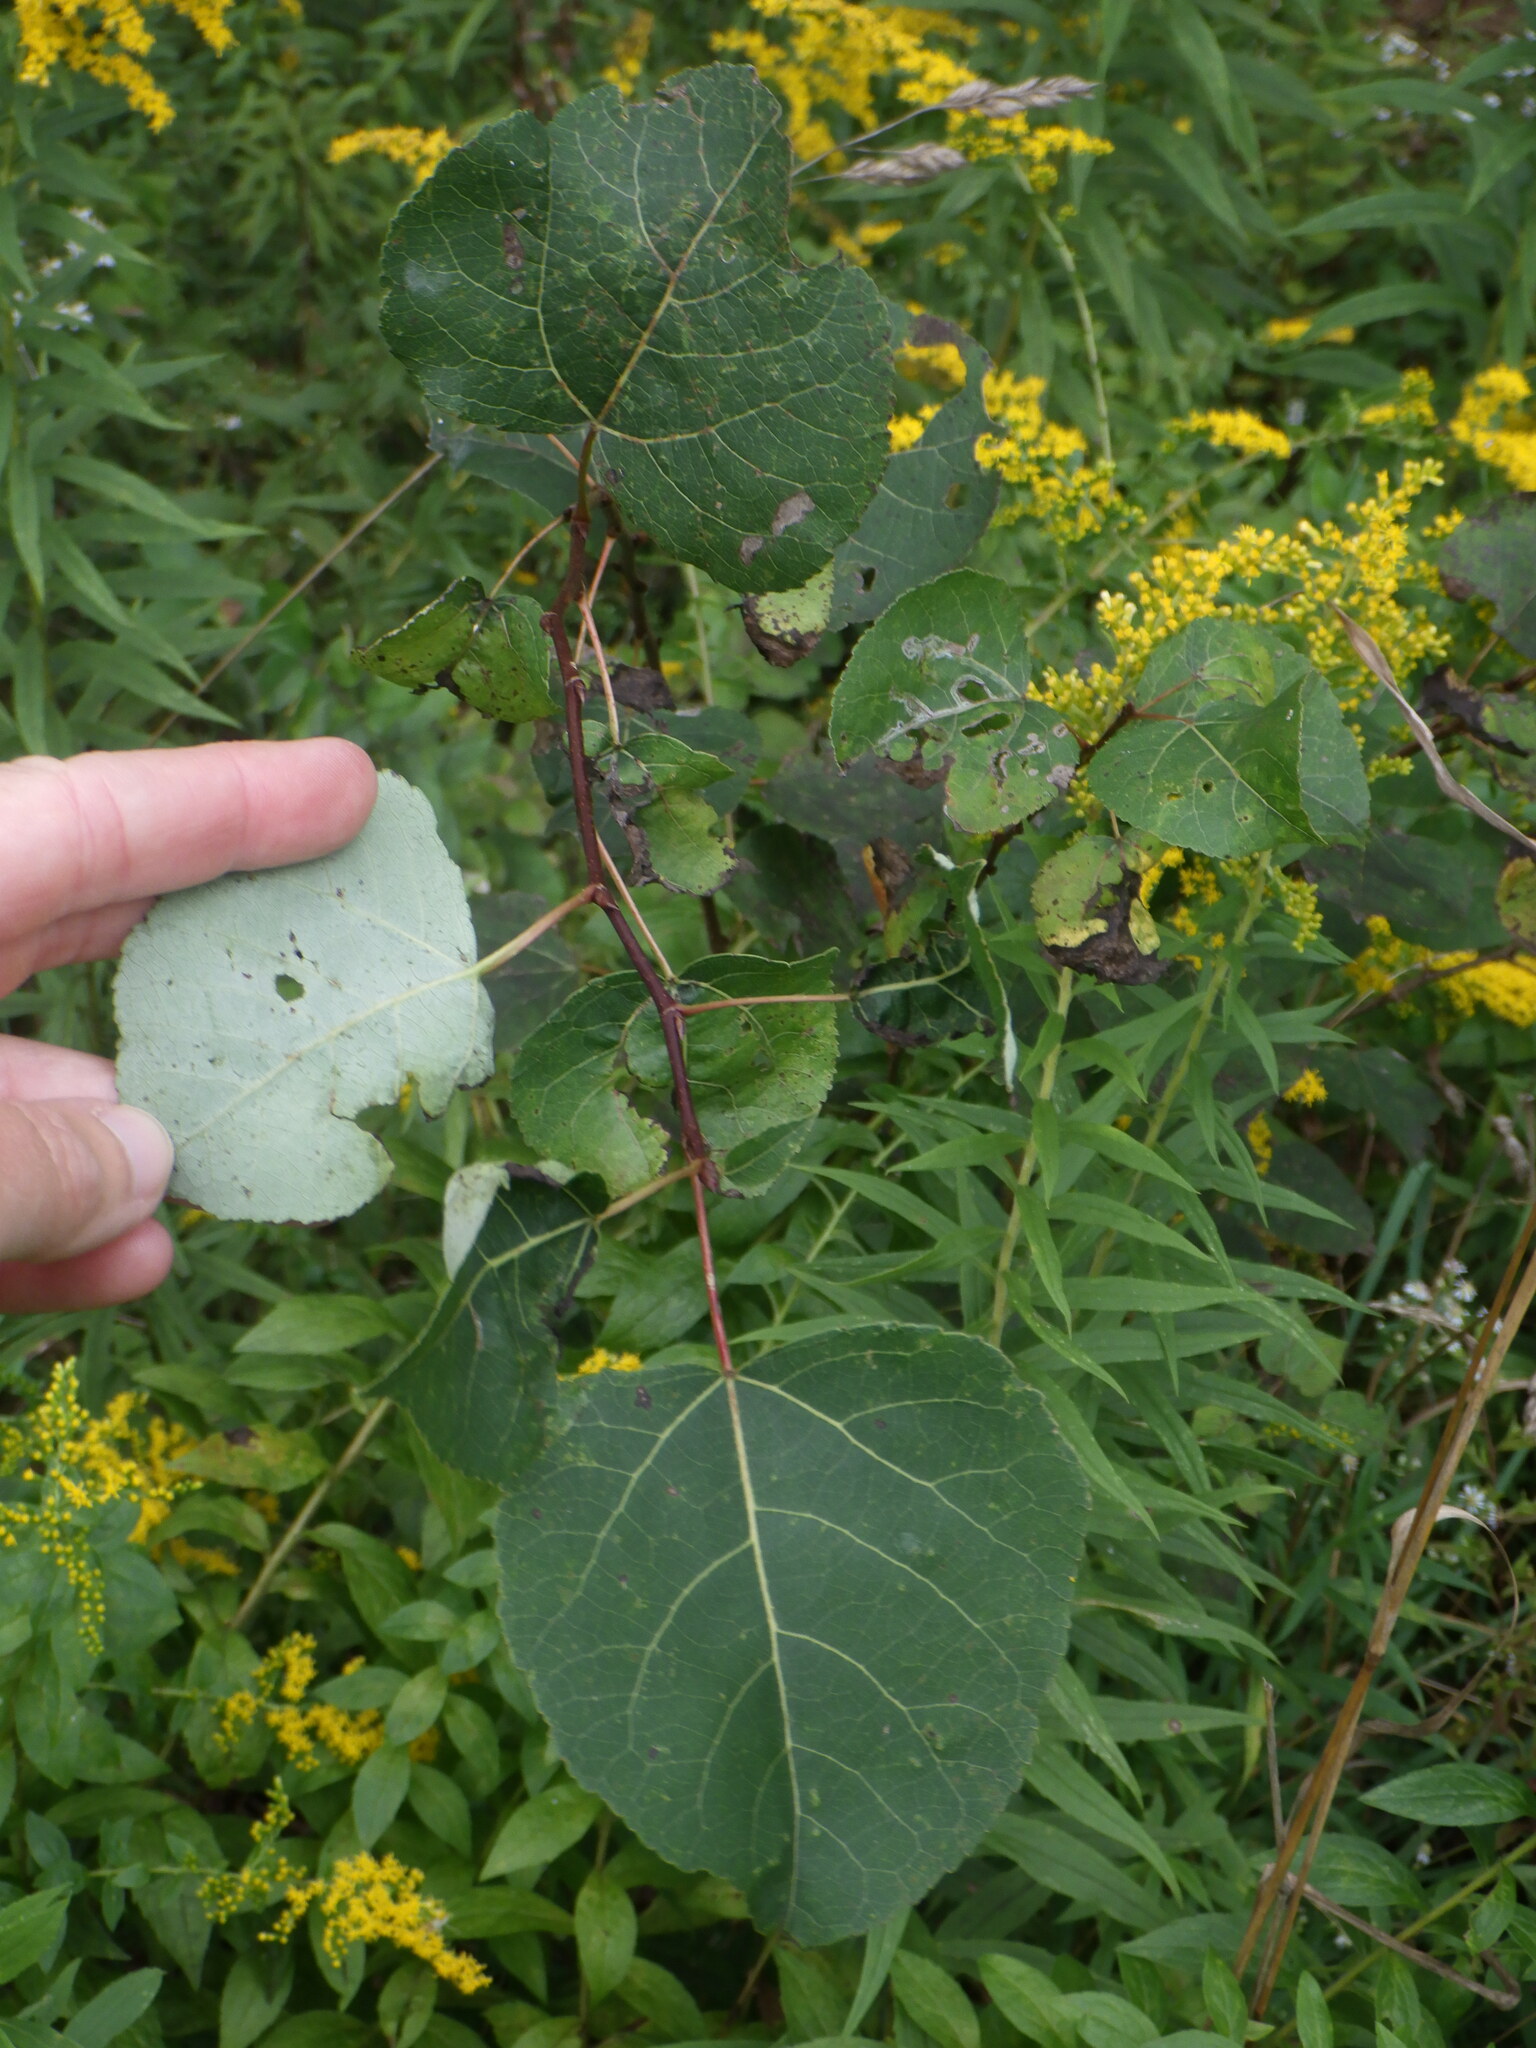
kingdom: Plantae
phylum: Tracheophyta
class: Magnoliopsida
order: Malpighiales
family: Salicaceae
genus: Populus
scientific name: Populus tremuloides
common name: Quaking aspen
